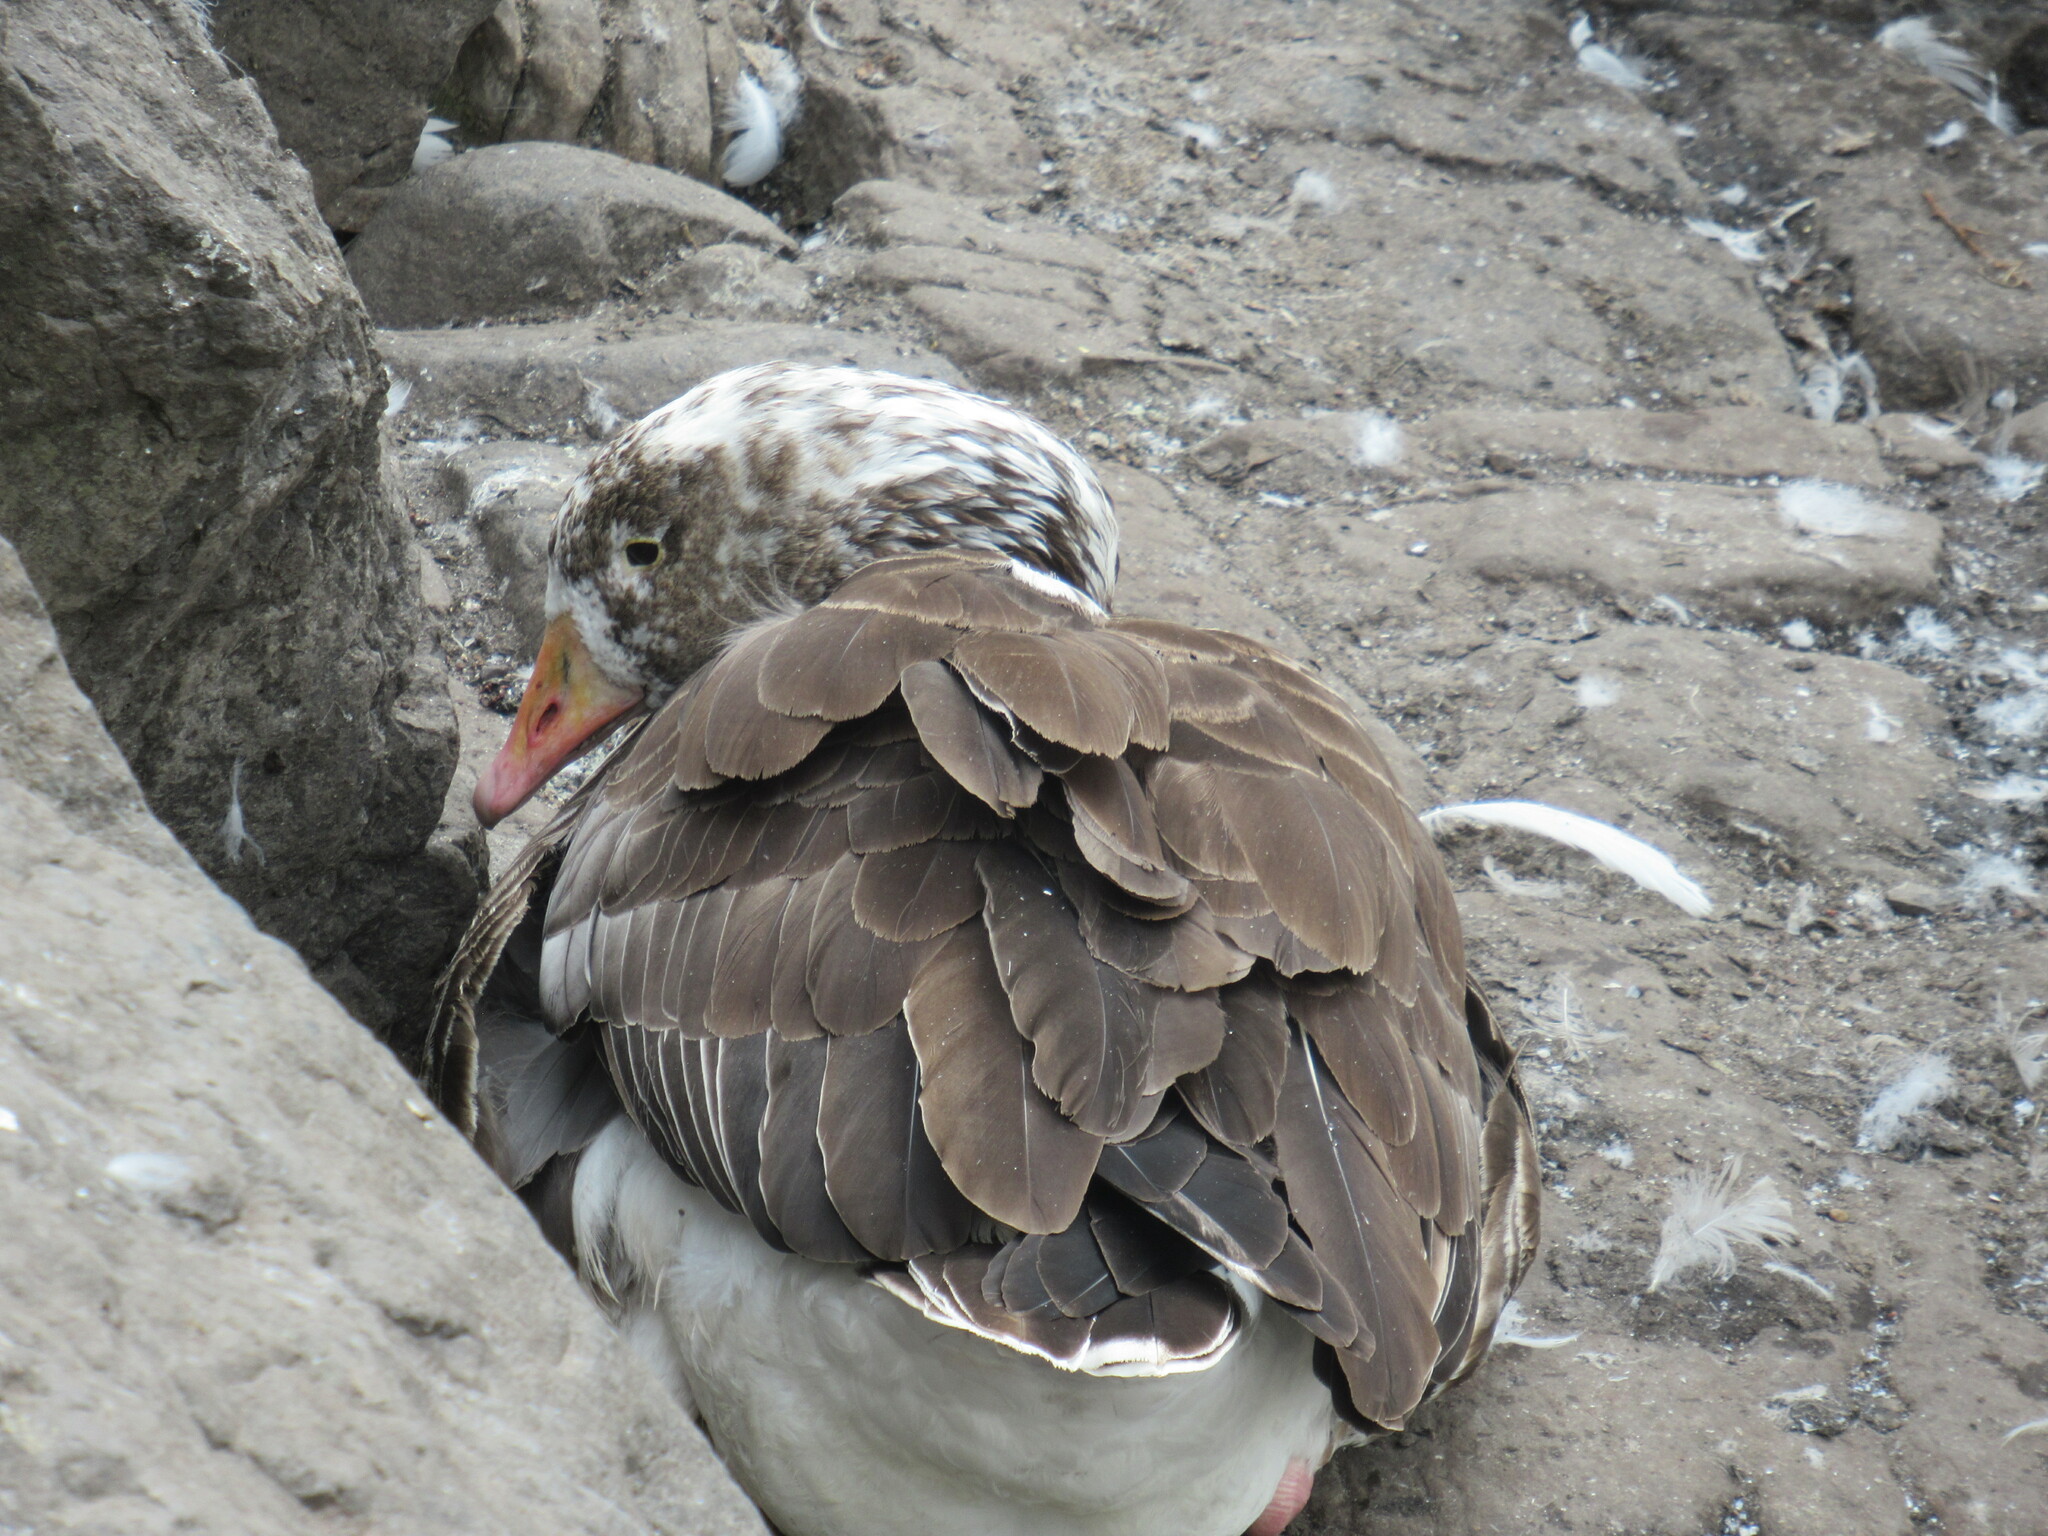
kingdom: Animalia
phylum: Chordata
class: Aves
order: Anseriformes
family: Anatidae
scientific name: Anatidae
